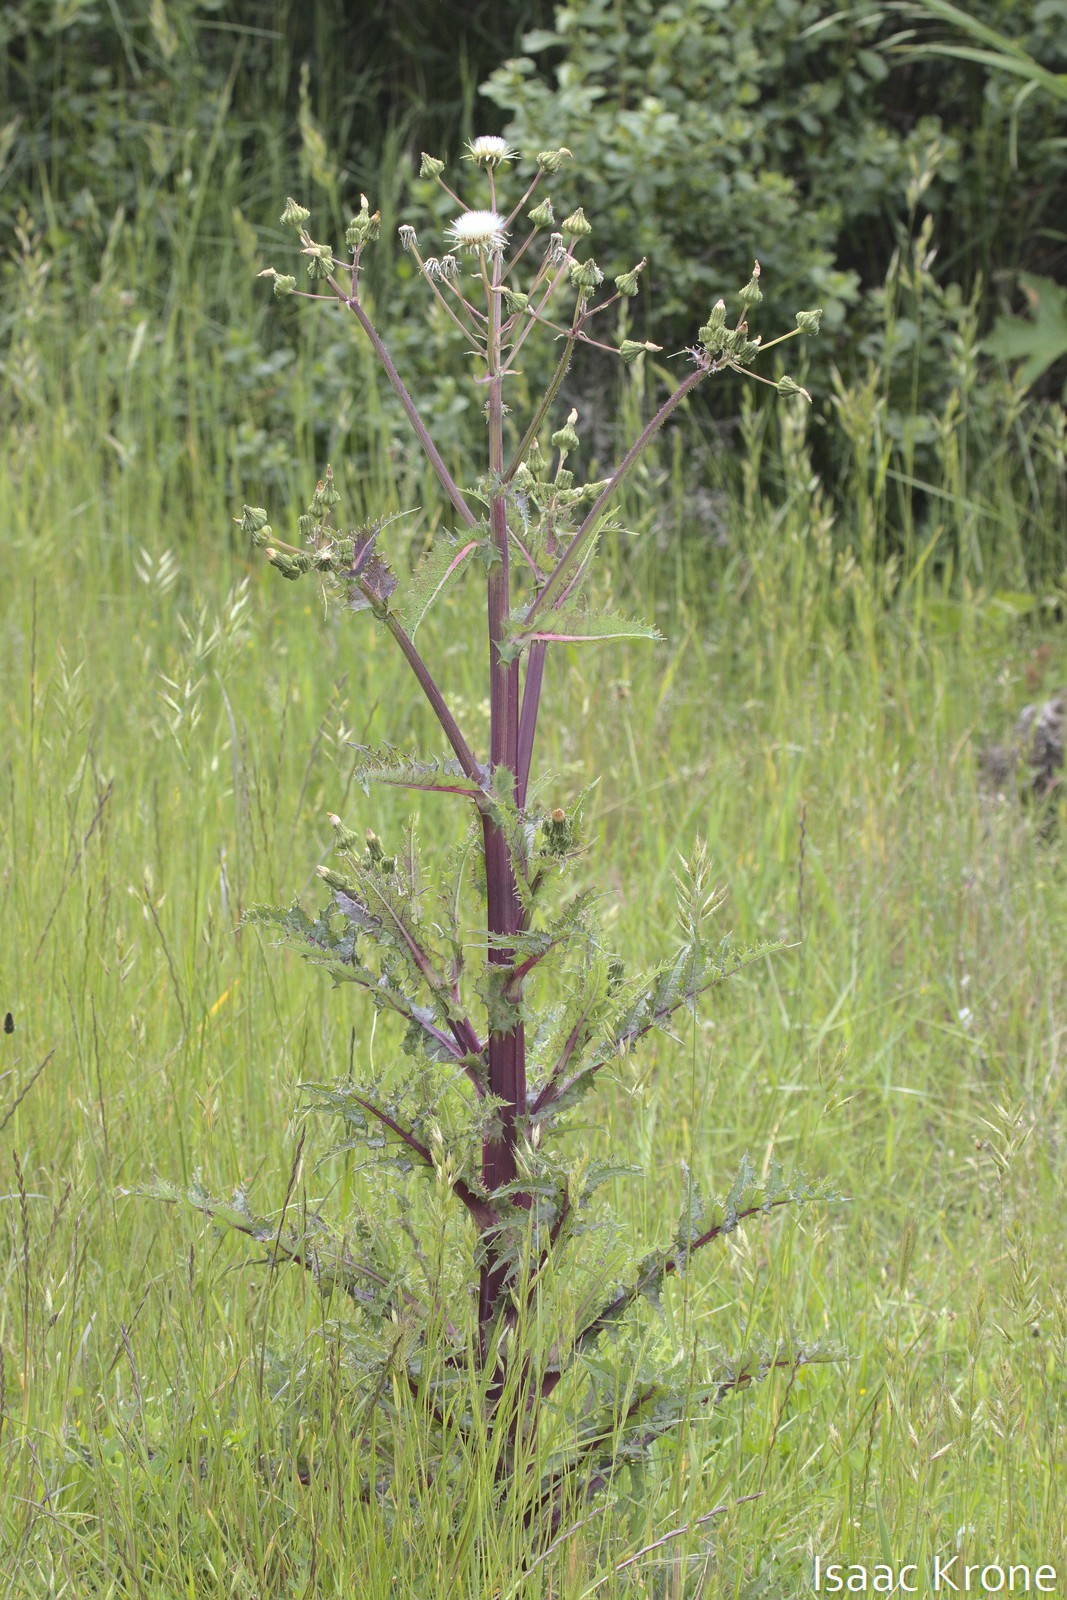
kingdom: Plantae
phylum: Tracheophyta
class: Magnoliopsida
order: Asterales
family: Asteraceae
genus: Sonchus
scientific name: Sonchus asper
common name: Prickly sow-thistle
